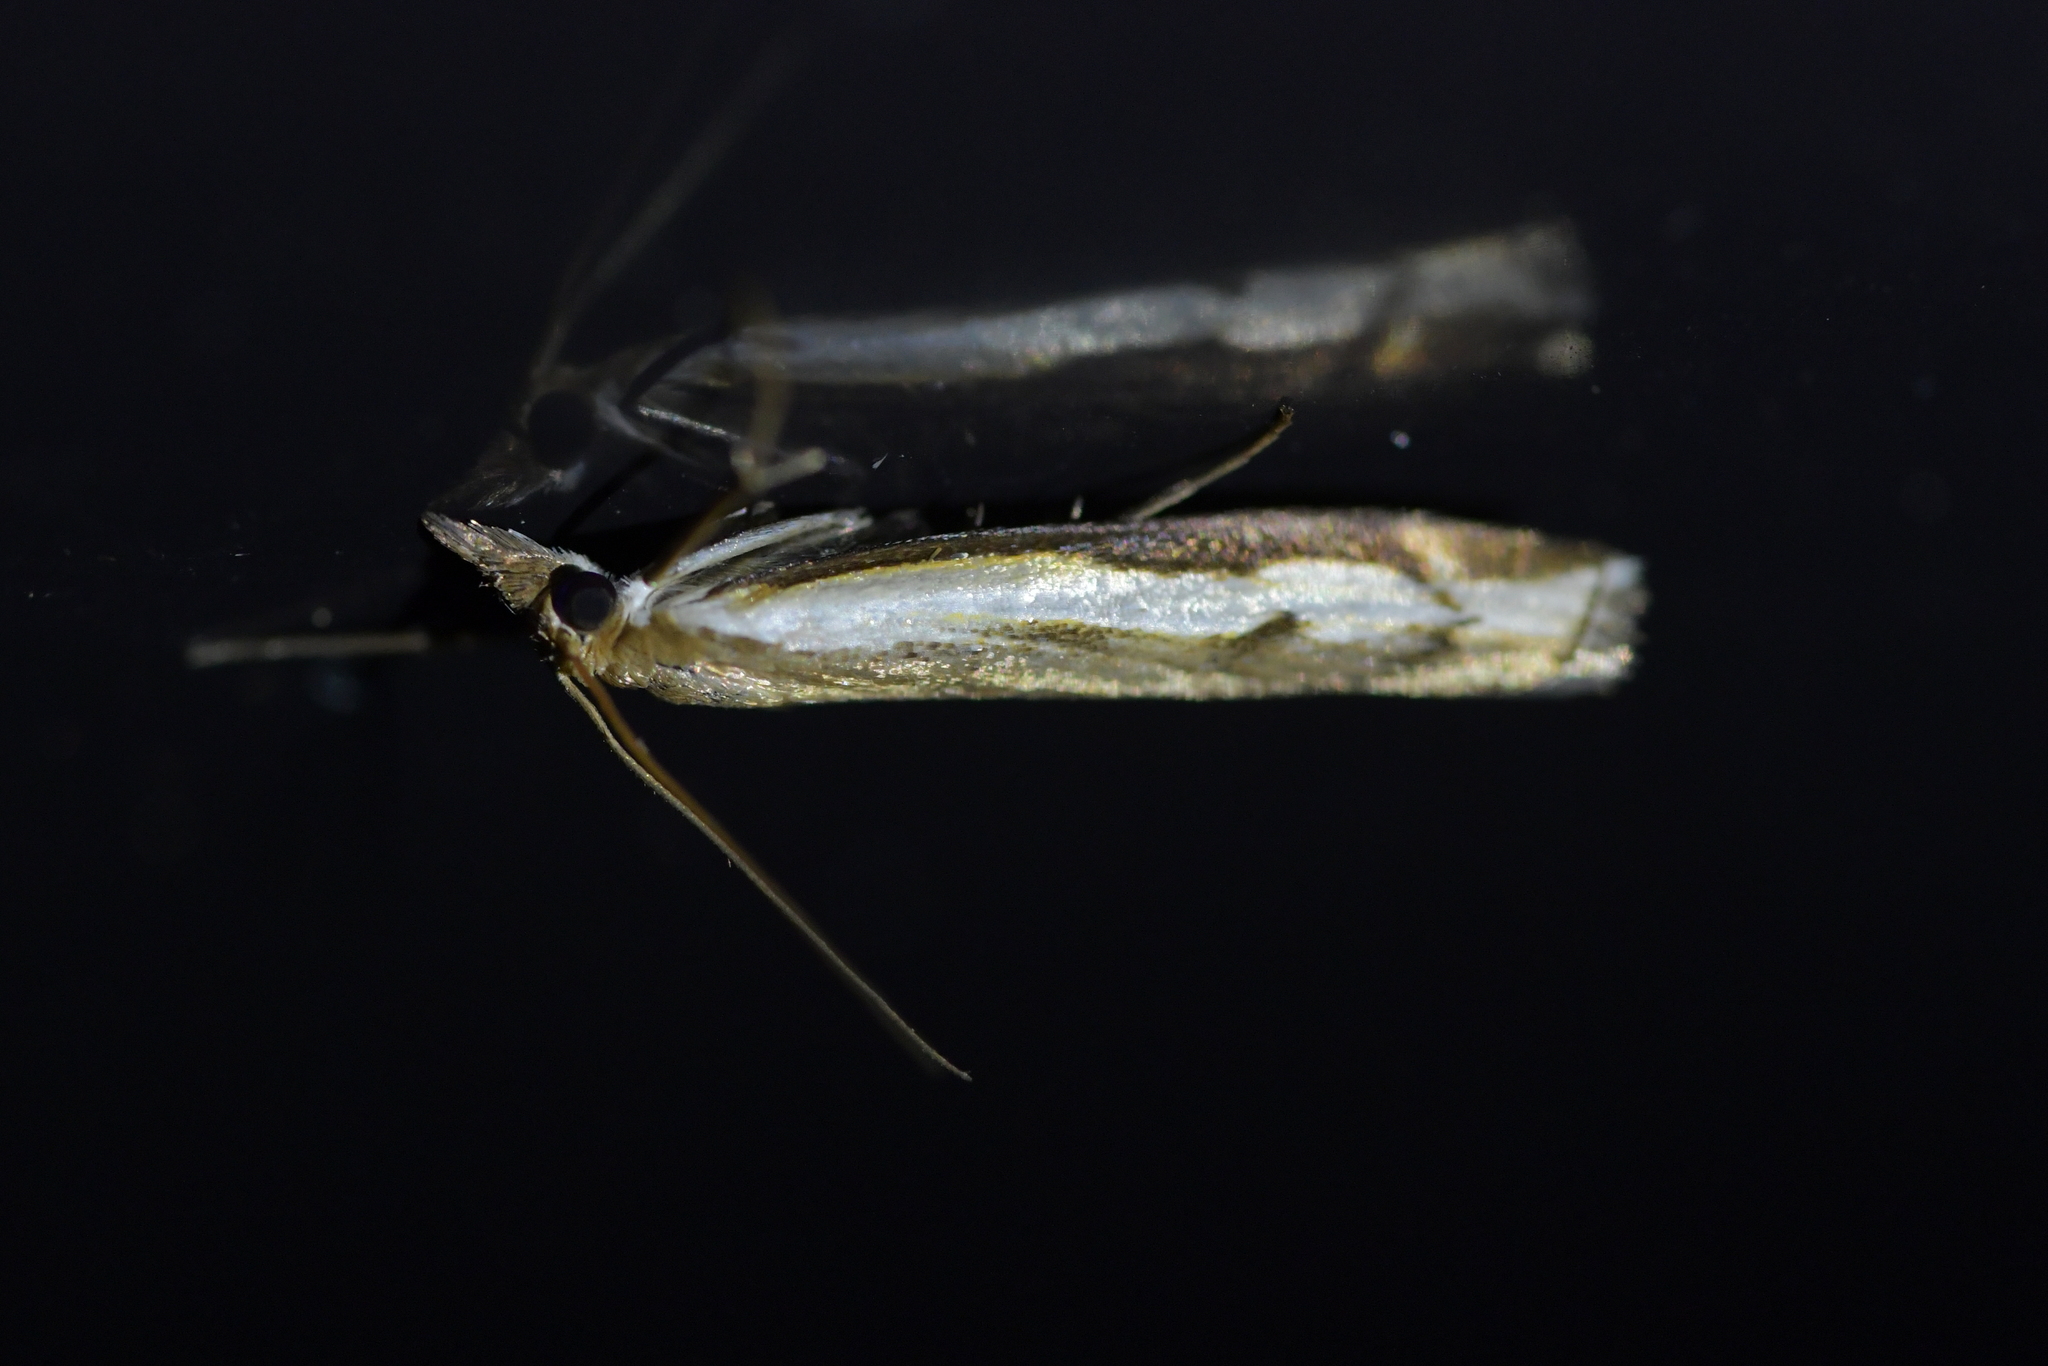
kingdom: Animalia
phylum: Arthropoda
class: Insecta
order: Lepidoptera
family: Crambidae
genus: Orocrambus
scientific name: Orocrambus flexuosellus
